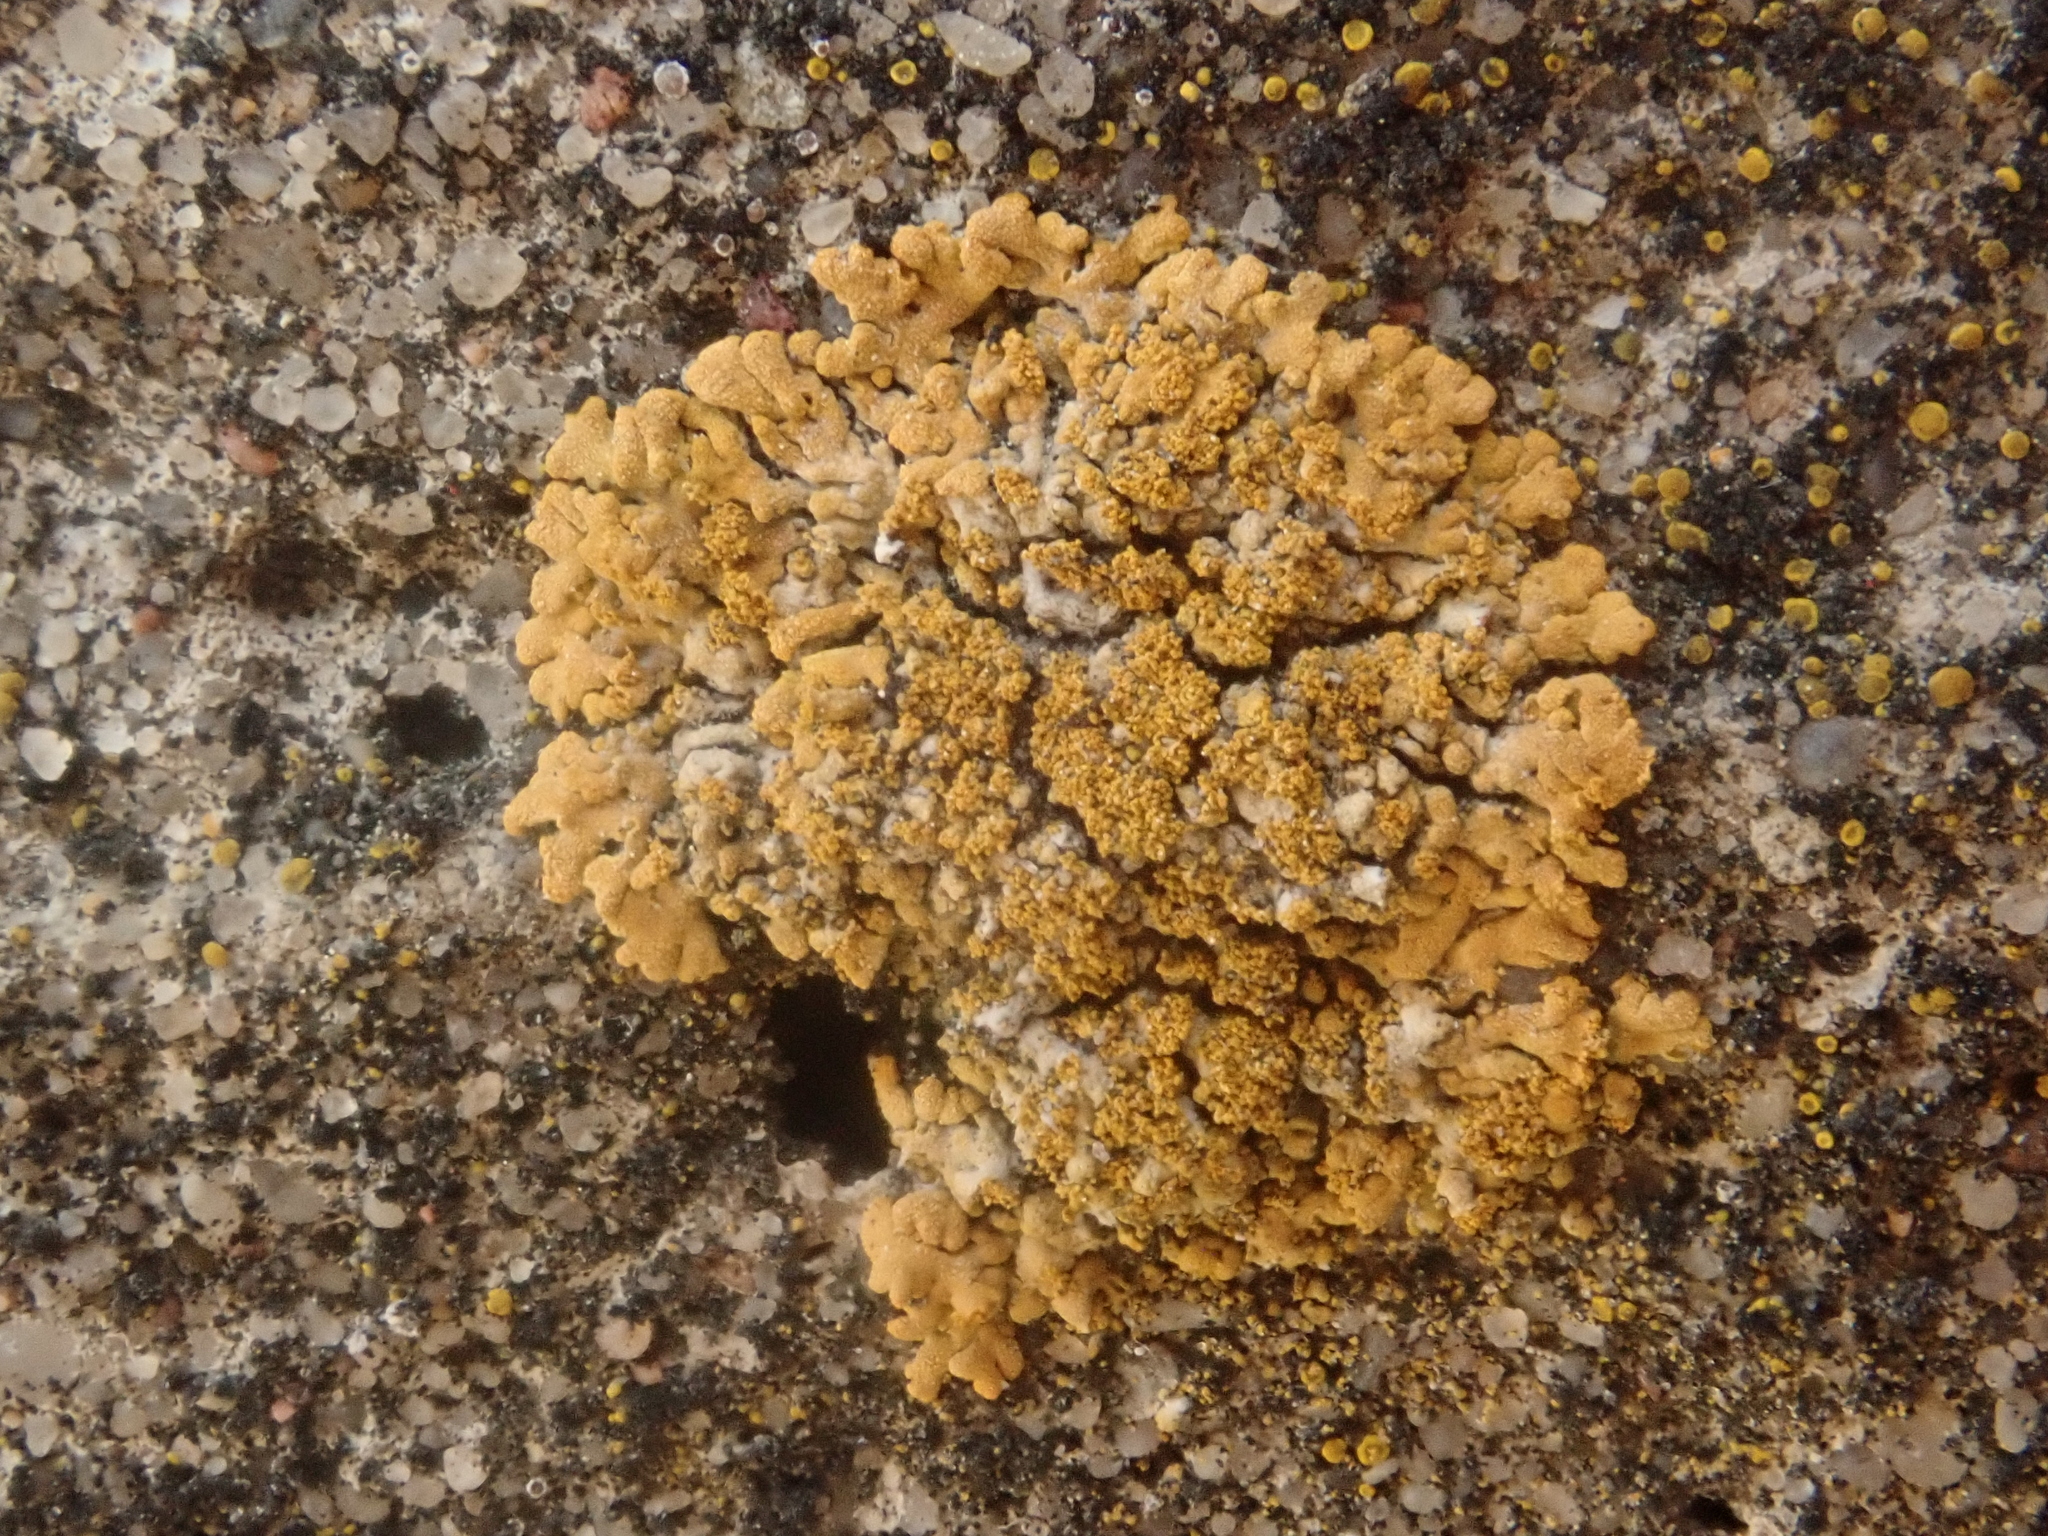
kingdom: Fungi
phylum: Ascomycota
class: Lecanoromycetes
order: Teloschistales
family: Teloschistaceae
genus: Calogaya
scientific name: Calogaya decipiens
